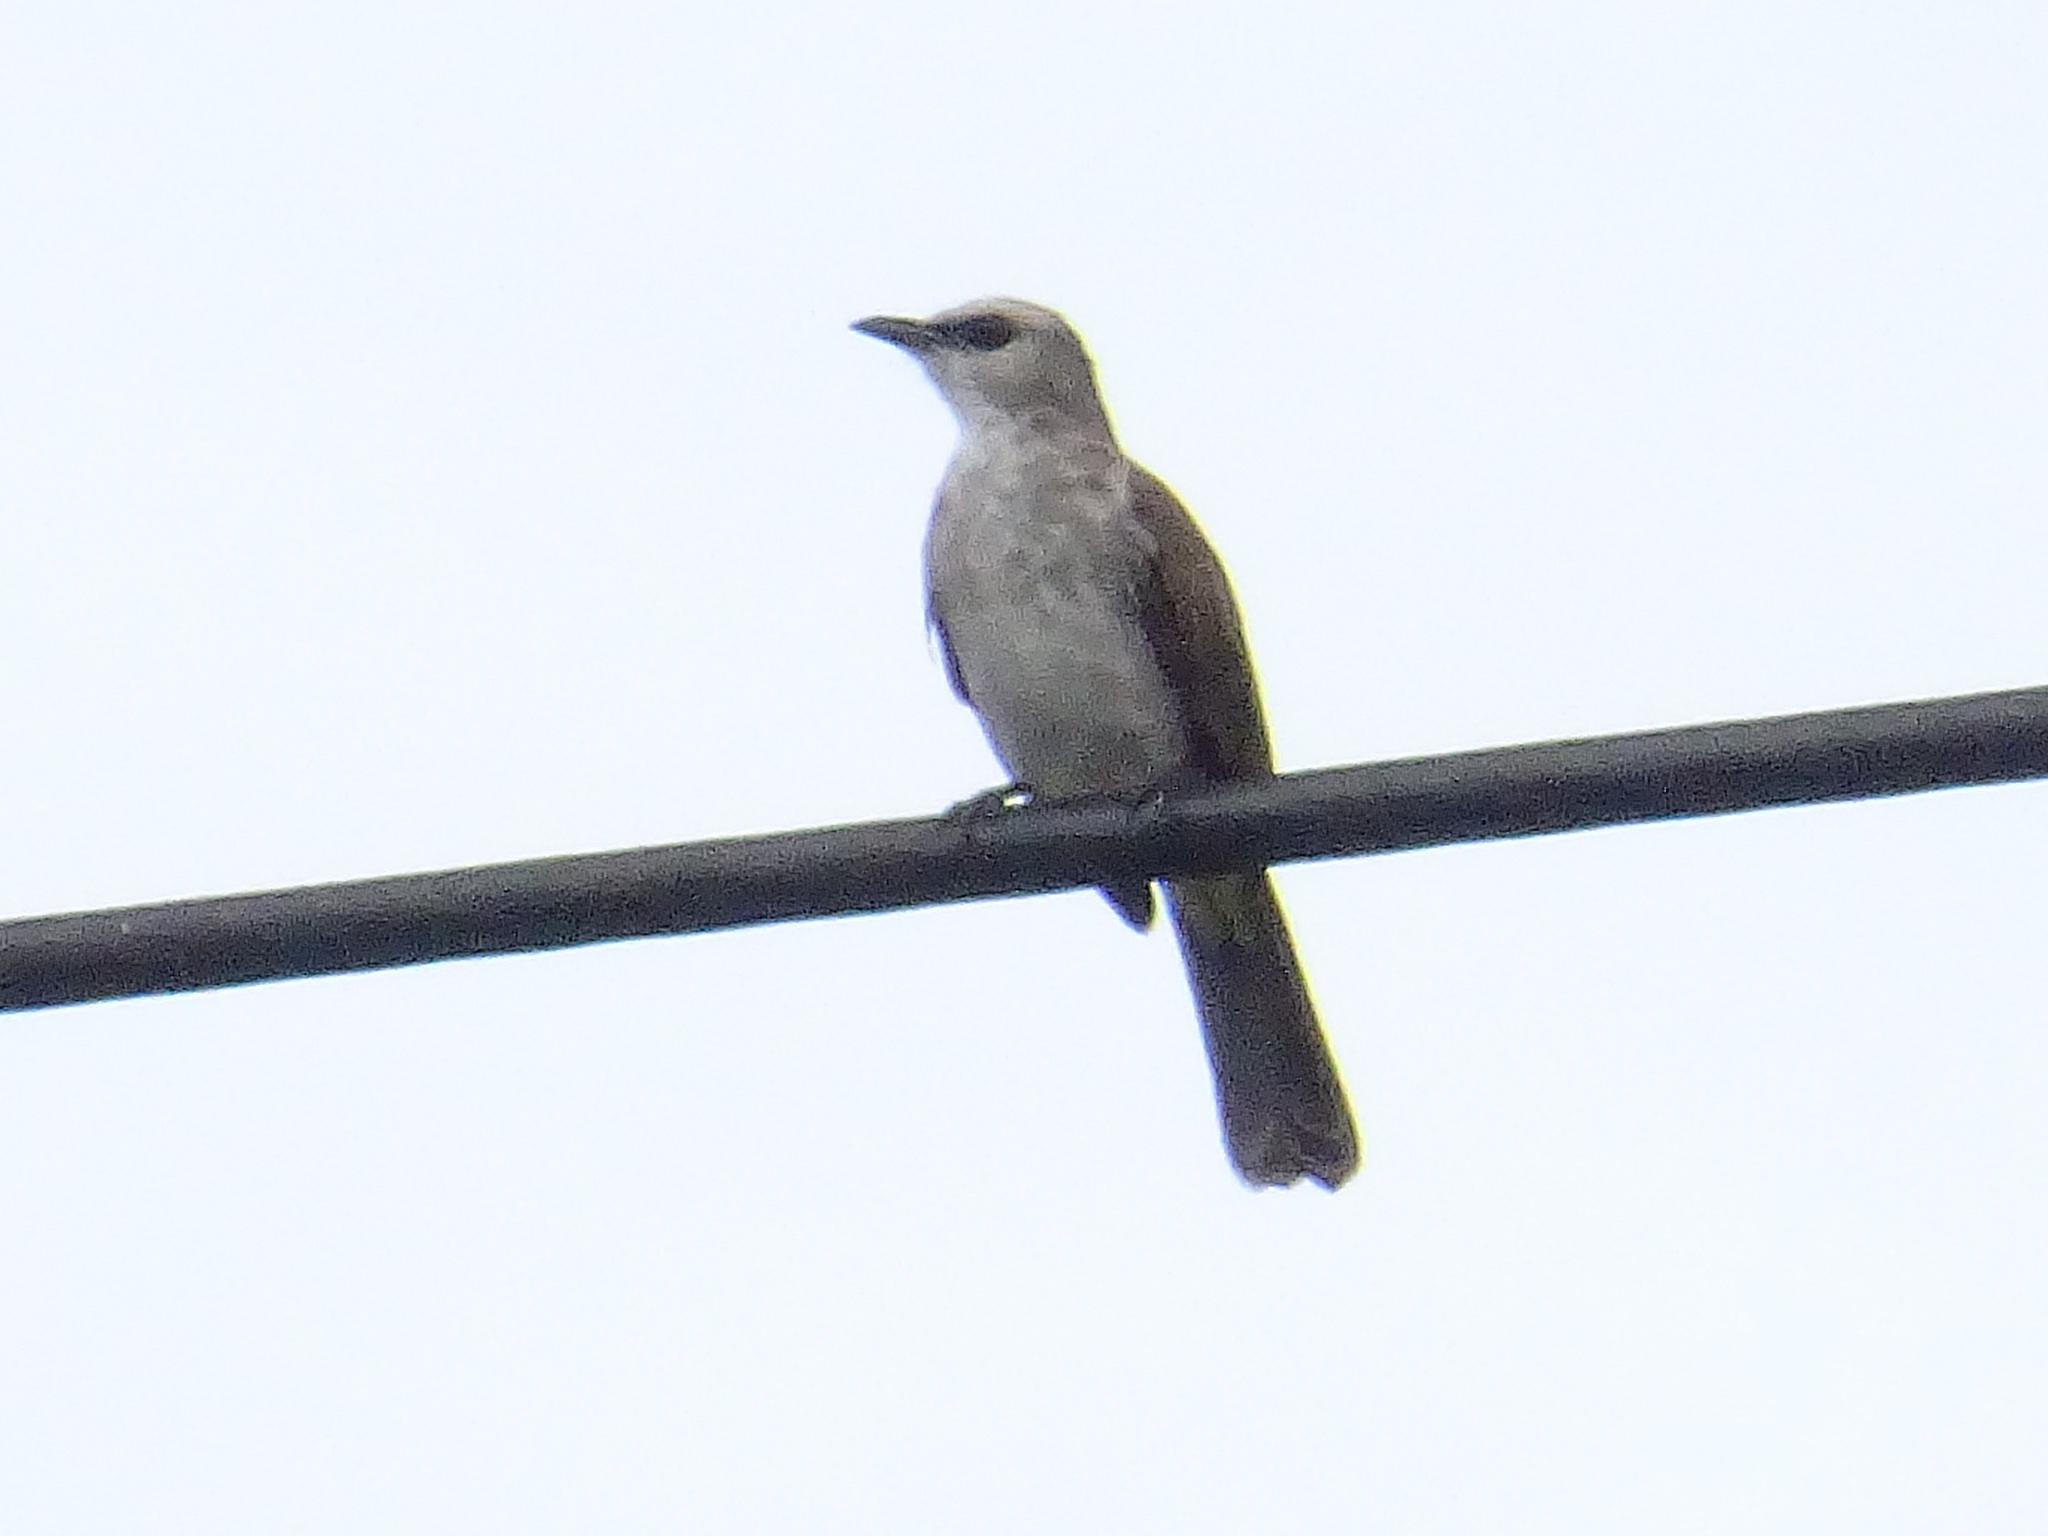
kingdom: Animalia
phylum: Chordata
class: Aves
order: Passeriformes
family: Pycnonotidae
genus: Pycnonotus
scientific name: Pycnonotus goiavier
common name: Yellow-vented bulbul
